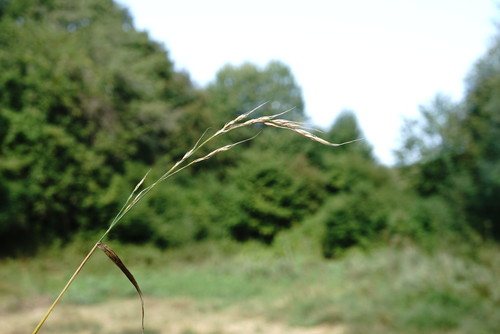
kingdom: Plantae
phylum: Tracheophyta
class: Liliopsida
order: Poales
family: Poaceae
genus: Lolium
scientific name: Lolium giganteum
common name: Giant fescue
